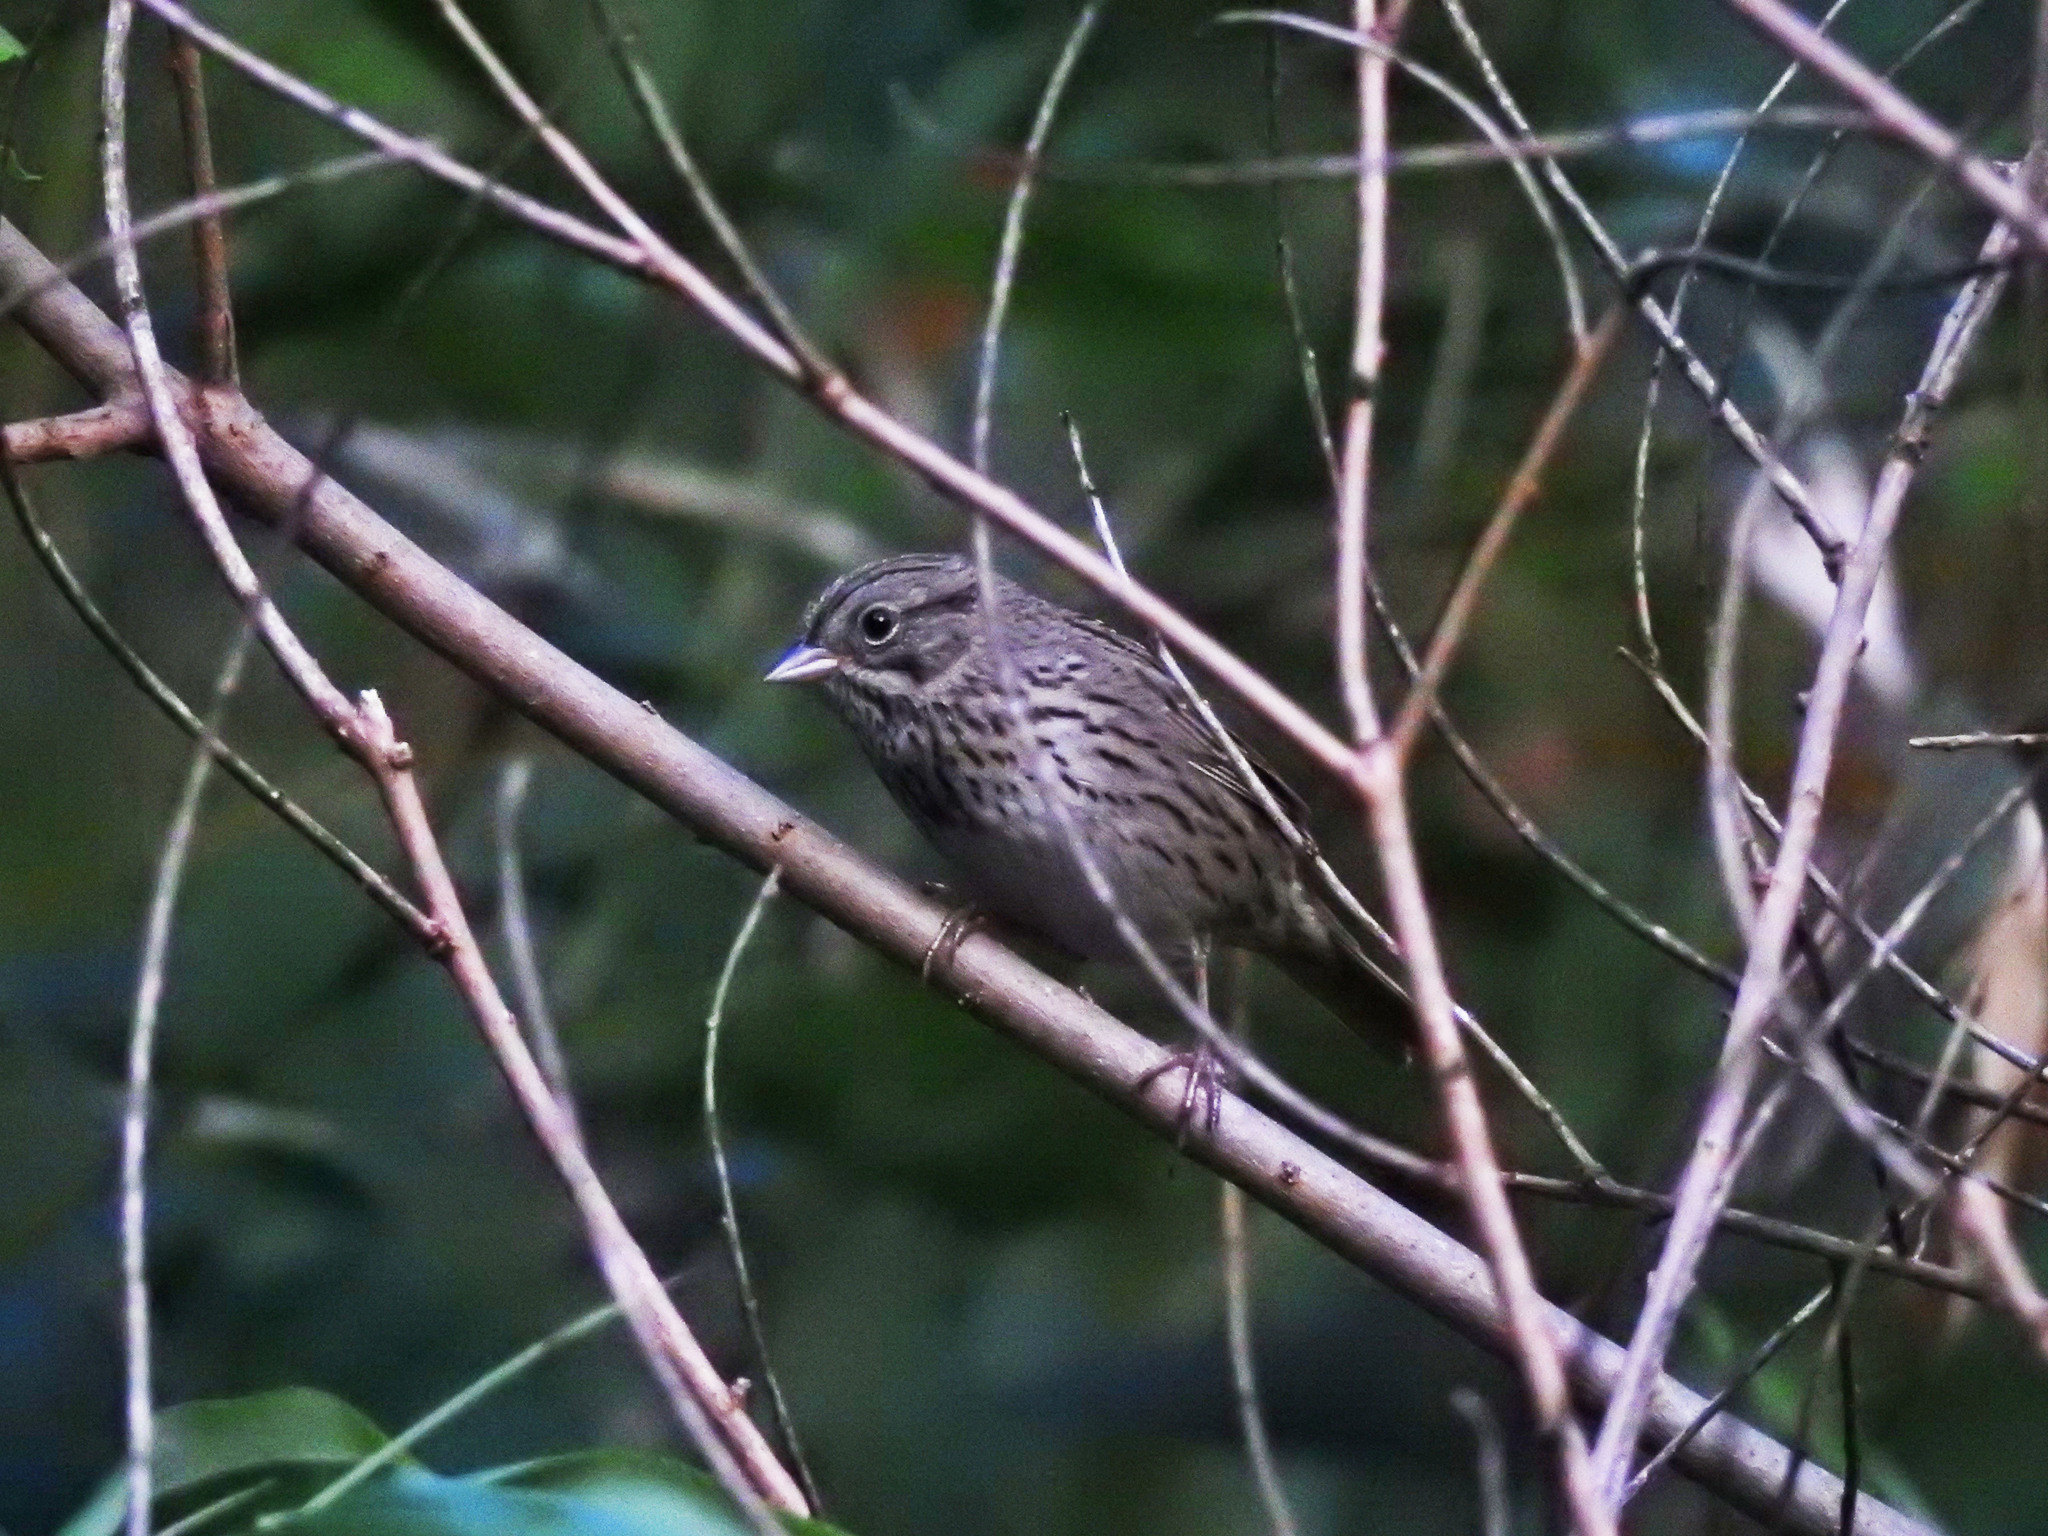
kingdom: Animalia
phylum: Chordata
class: Aves
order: Passeriformes
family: Passerellidae
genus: Melospiza
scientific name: Melospiza lincolnii
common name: Lincoln's sparrow
